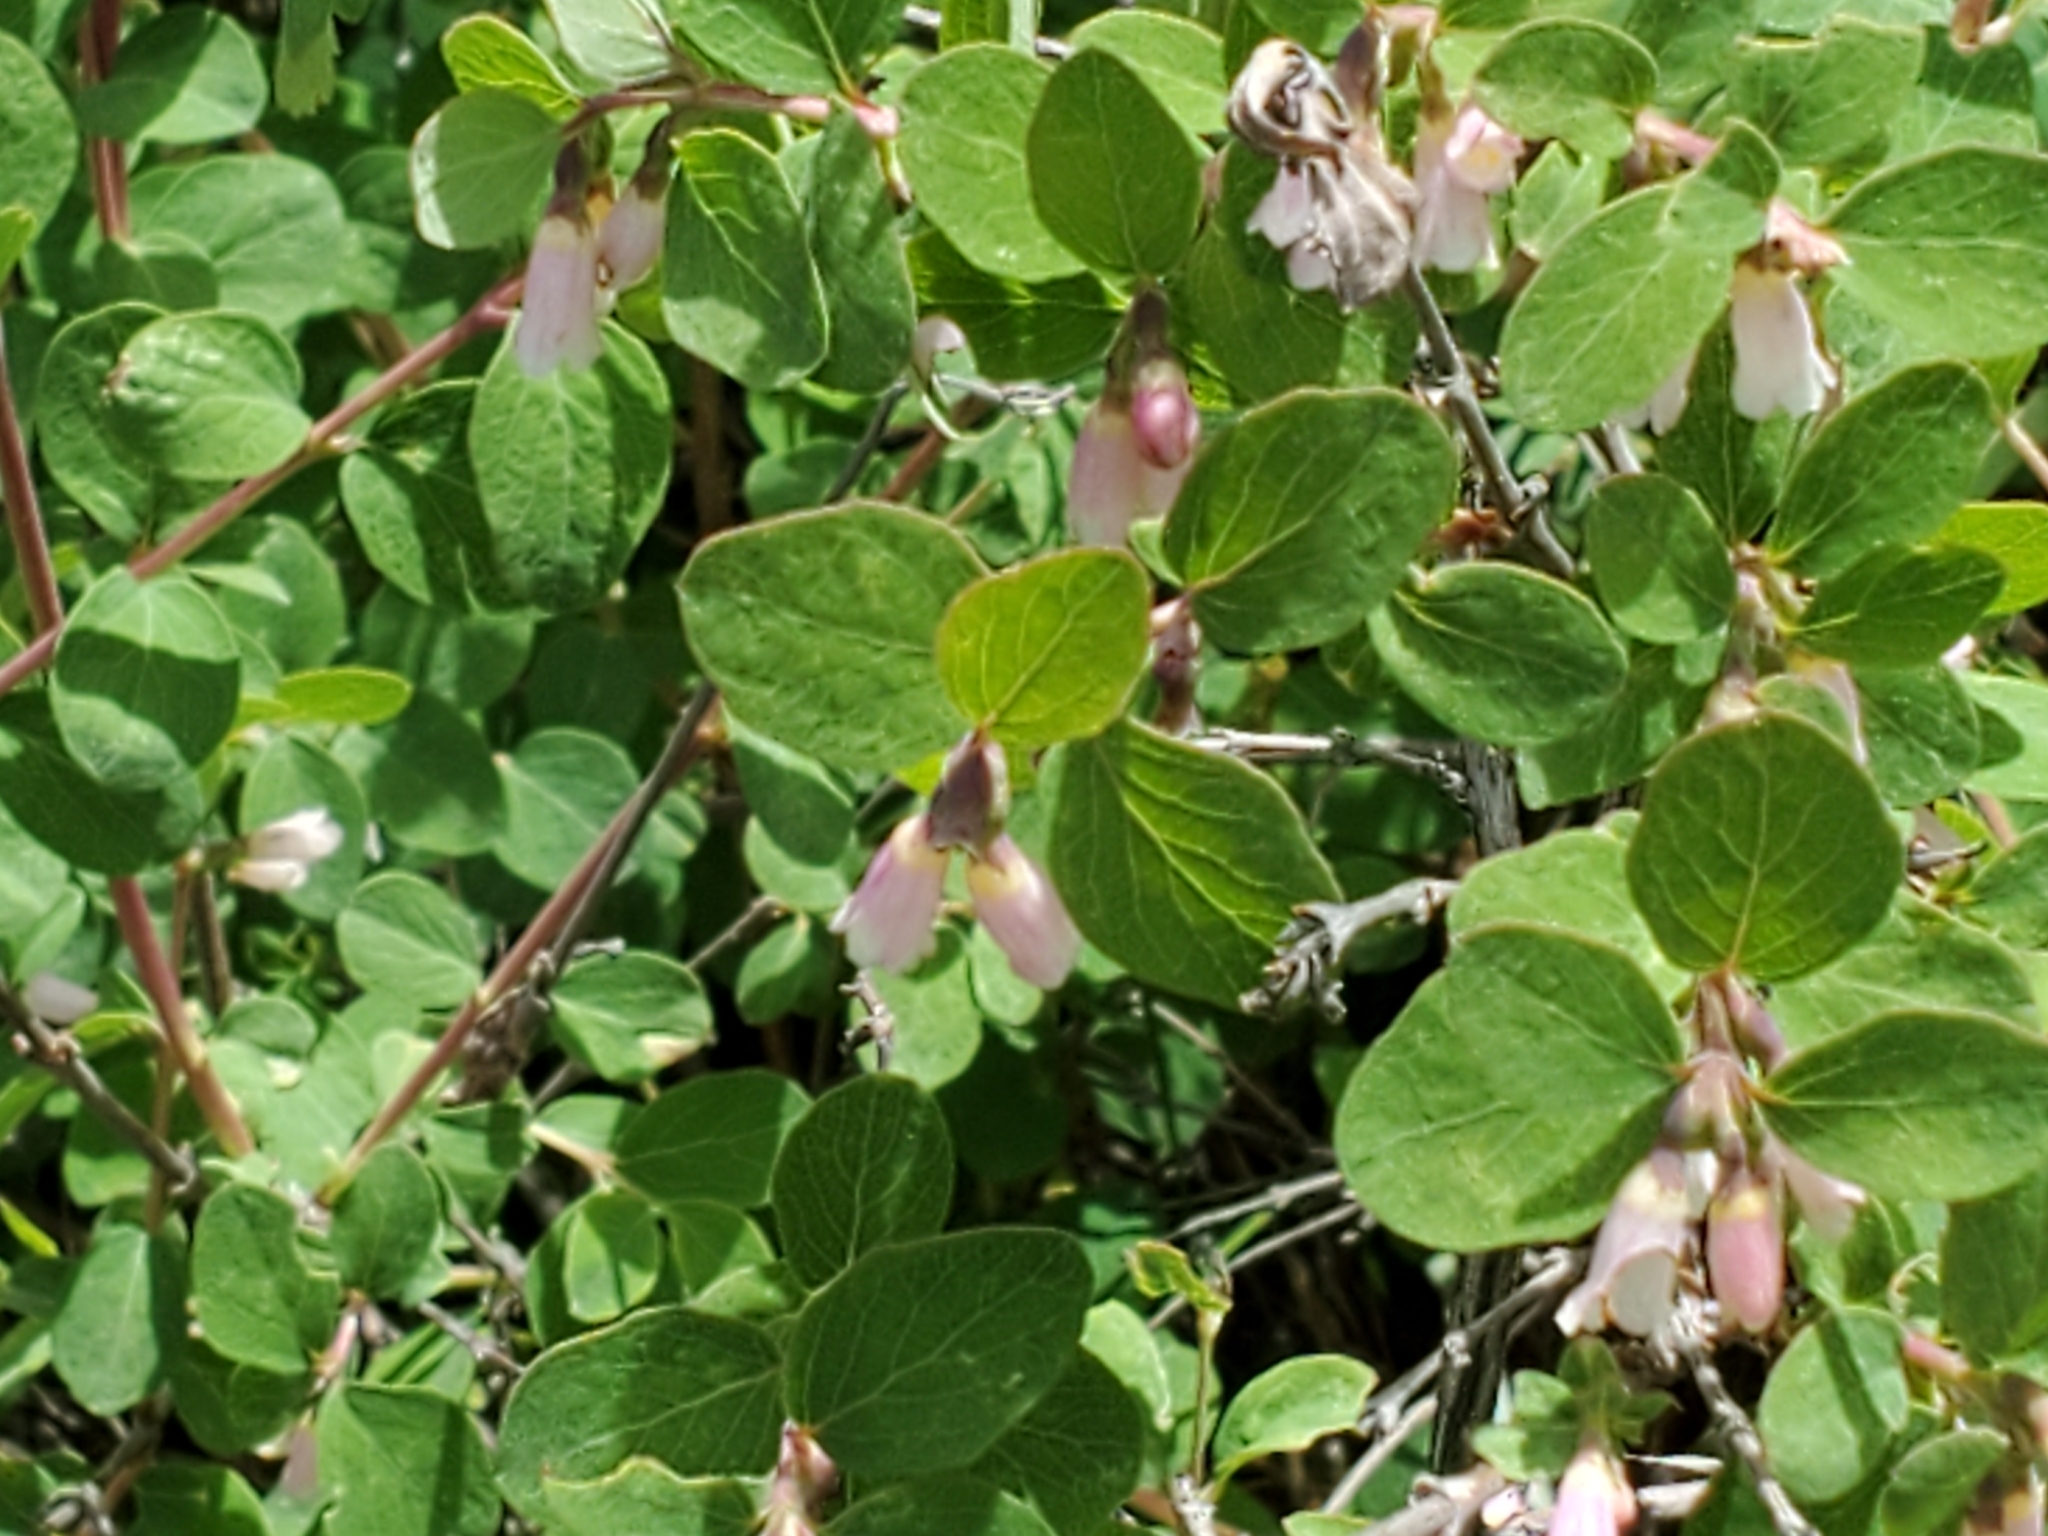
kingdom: Plantae
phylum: Tracheophyta
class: Magnoliopsida
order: Dipsacales
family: Caprifoliaceae
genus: Symphoricarpos
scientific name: Symphoricarpos rotundifolius
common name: Round-leaved snowberry
